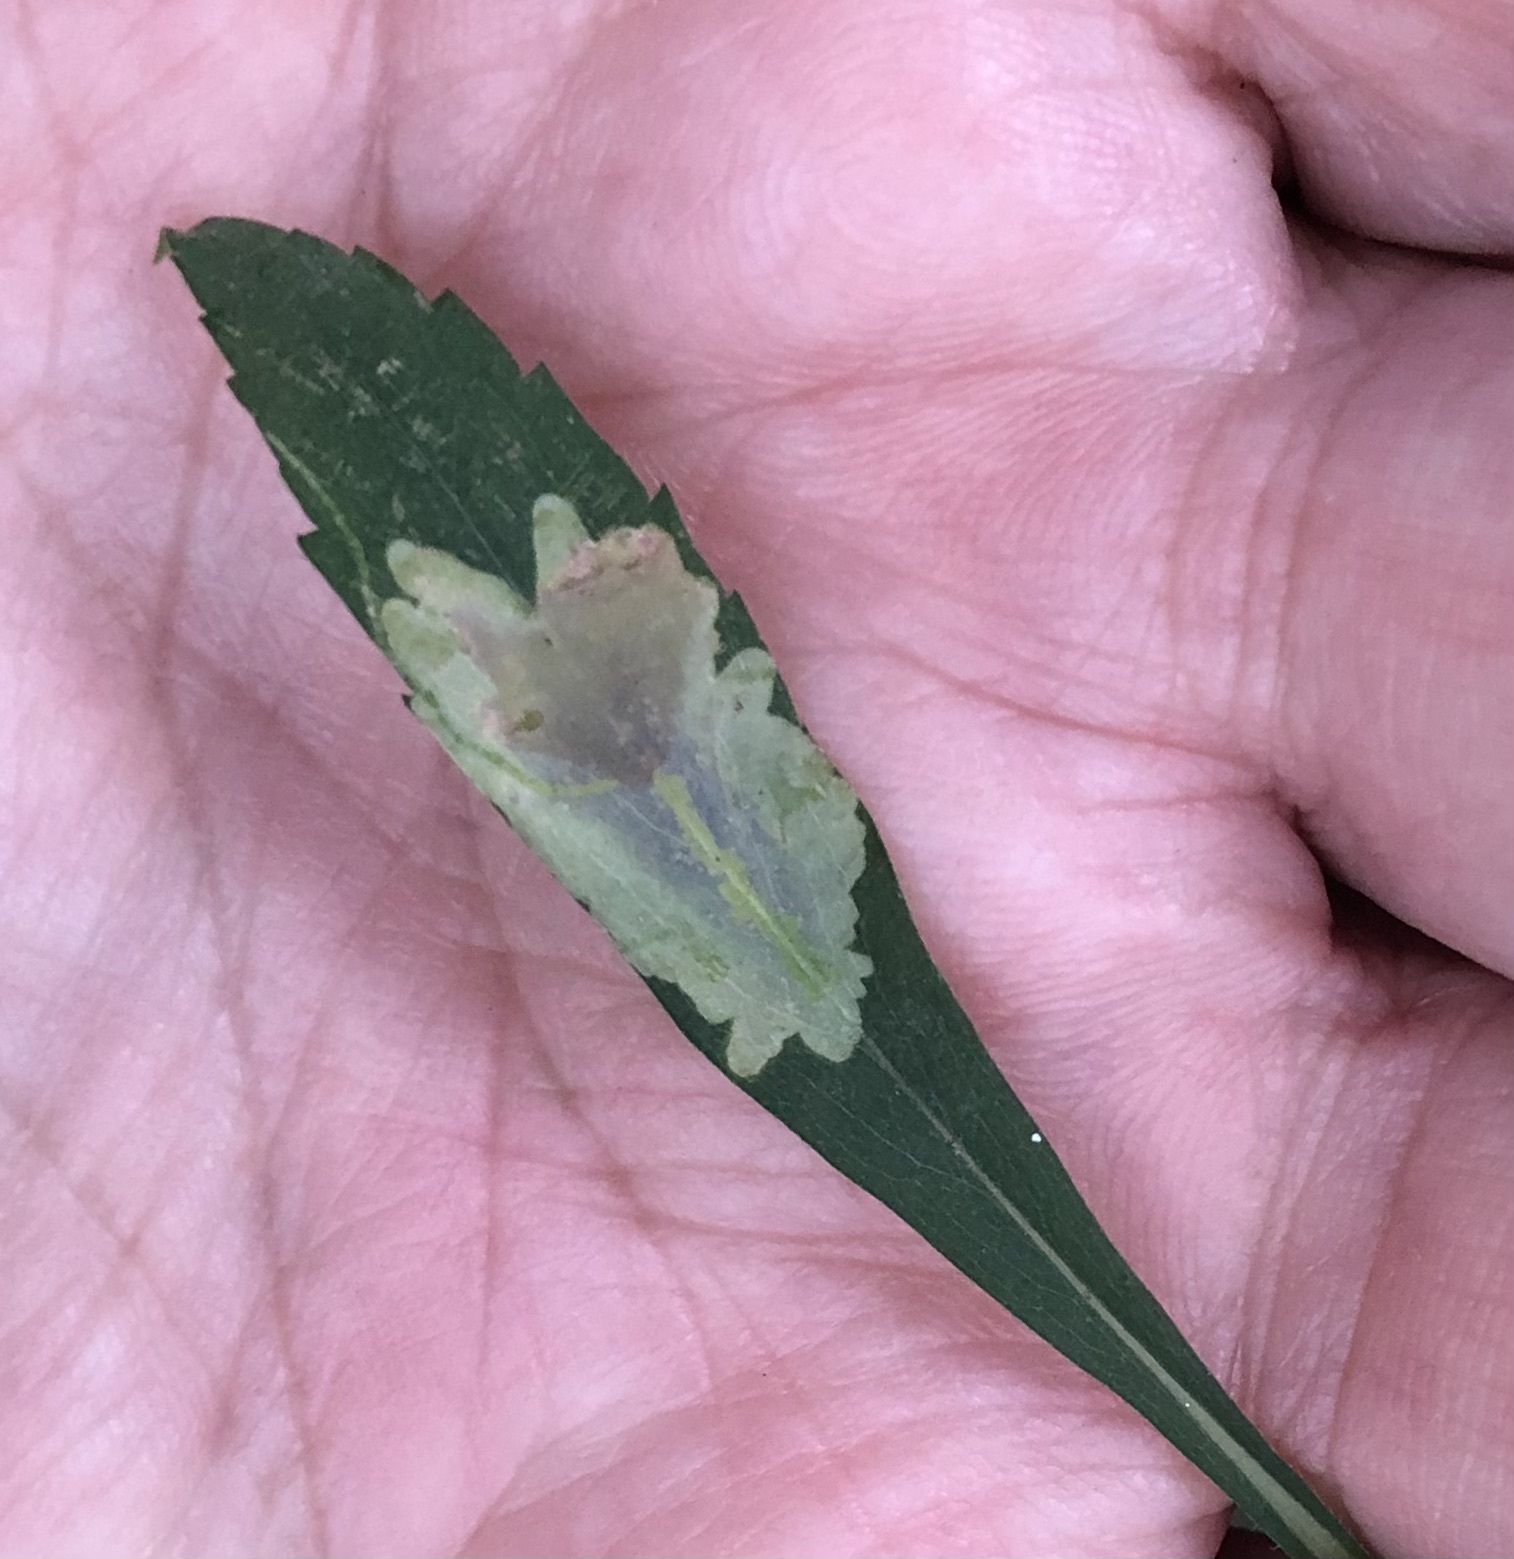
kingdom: Animalia
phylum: Arthropoda
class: Insecta
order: Diptera
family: Agromyzidae
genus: Calycomyza
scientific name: Calycomyza promissa
